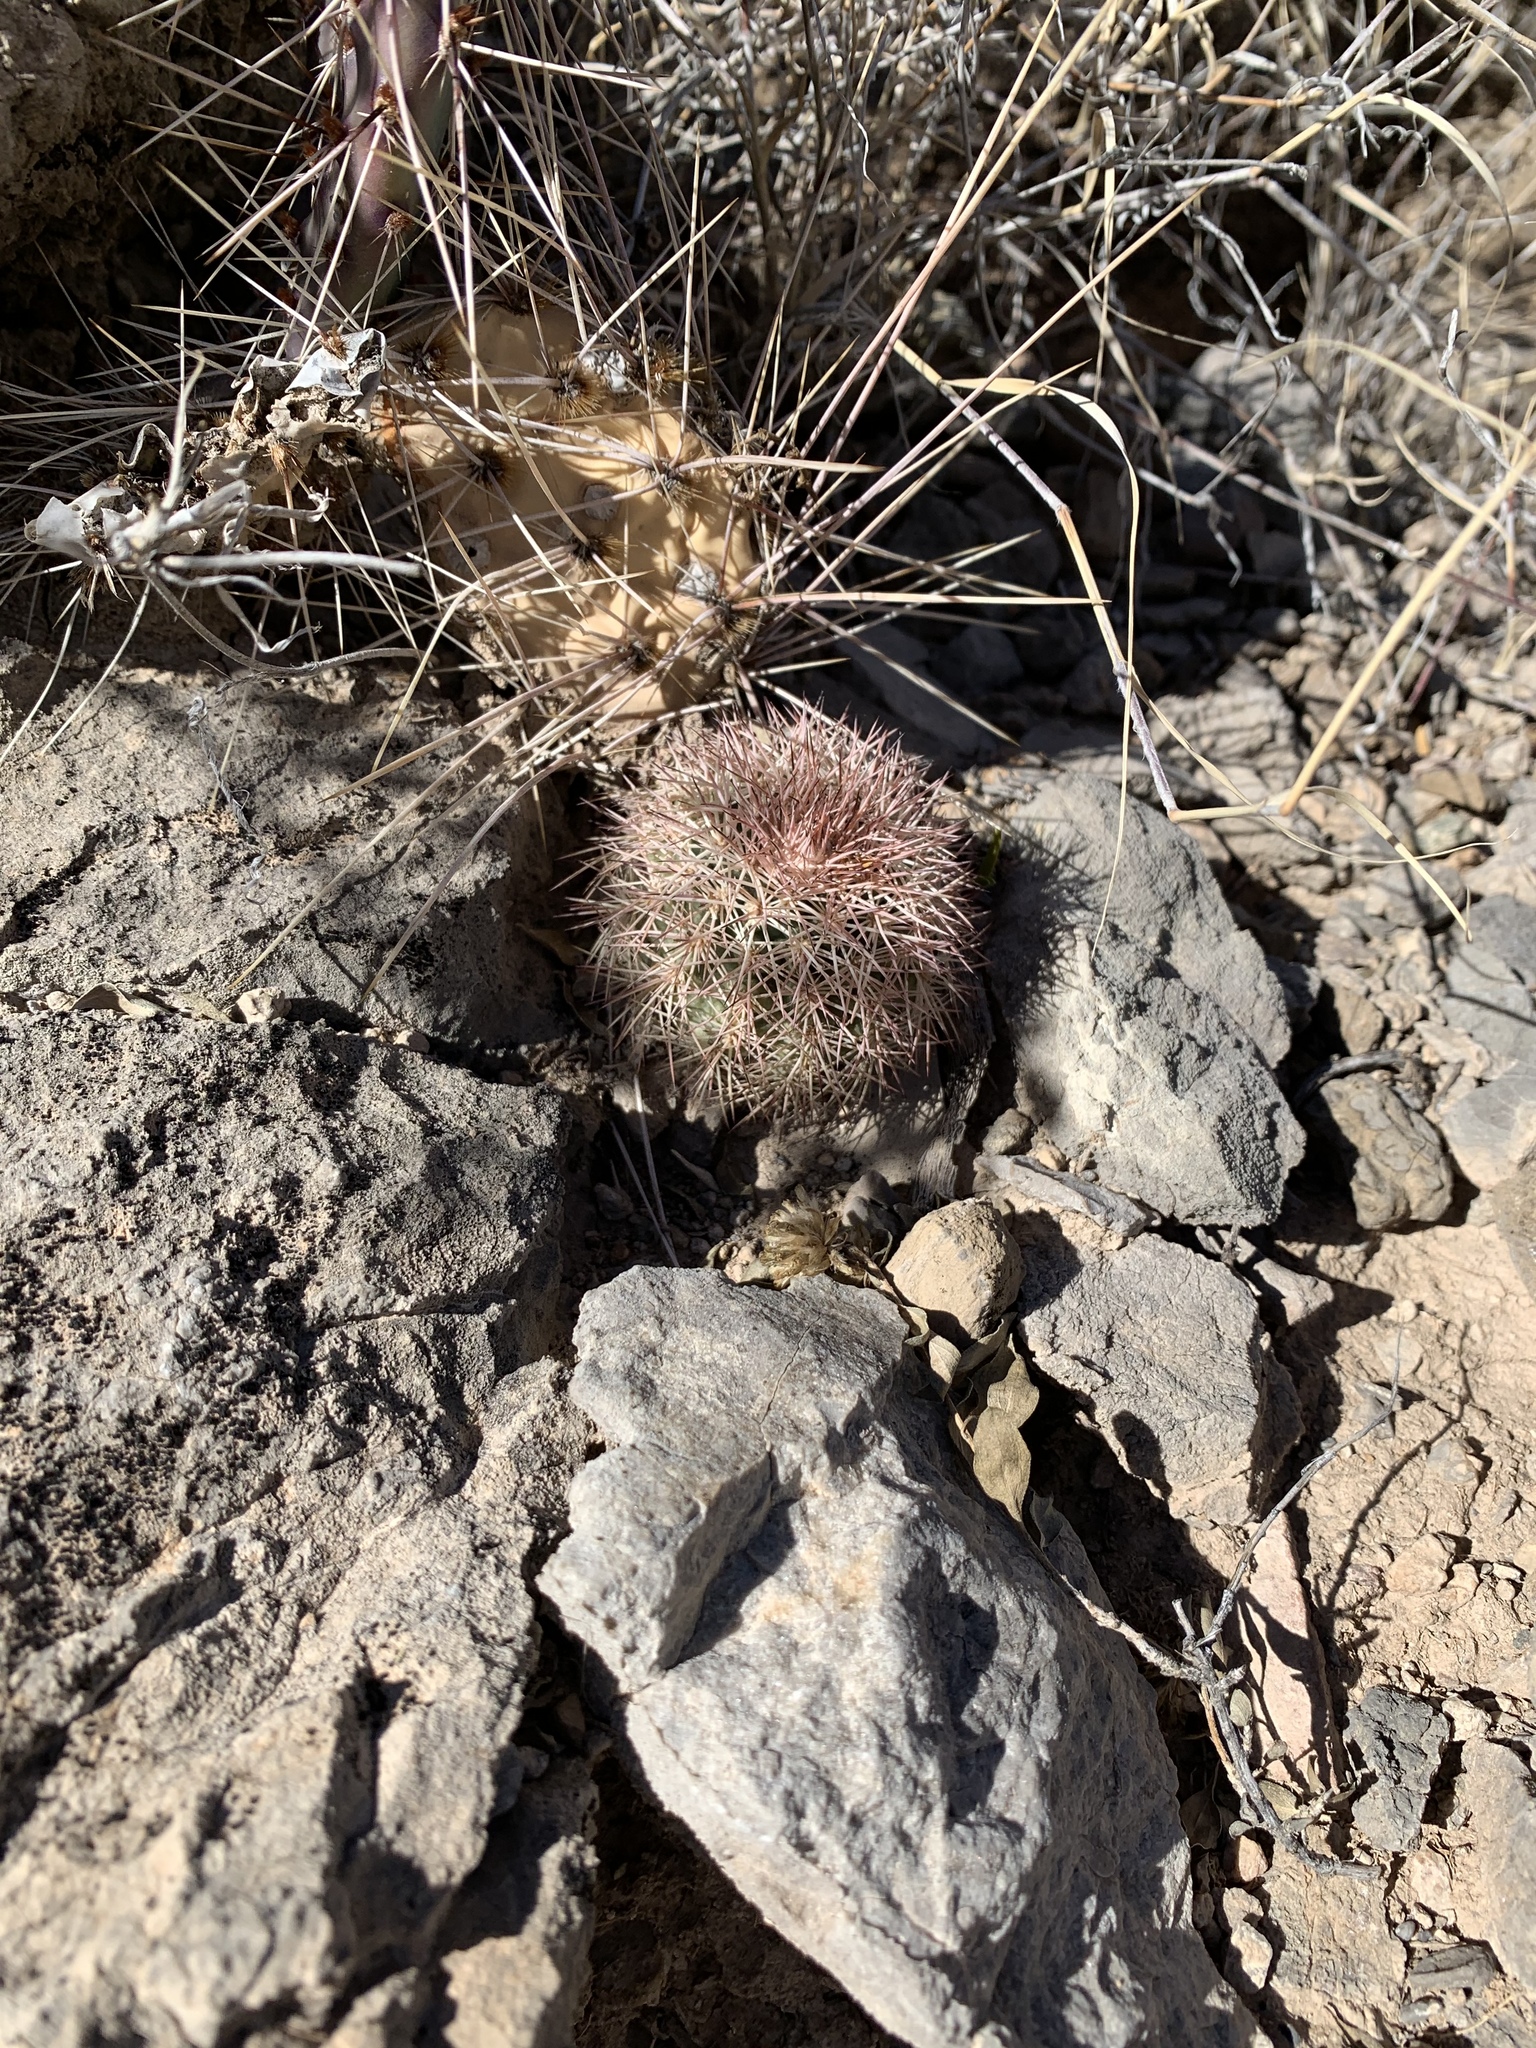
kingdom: Plantae
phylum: Tracheophyta
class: Magnoliopsida
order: Caryophyllales
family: Cactaceae
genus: Echinocereus
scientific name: Echinocereus dasyacanthus
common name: Spiny hedgehog cactus
